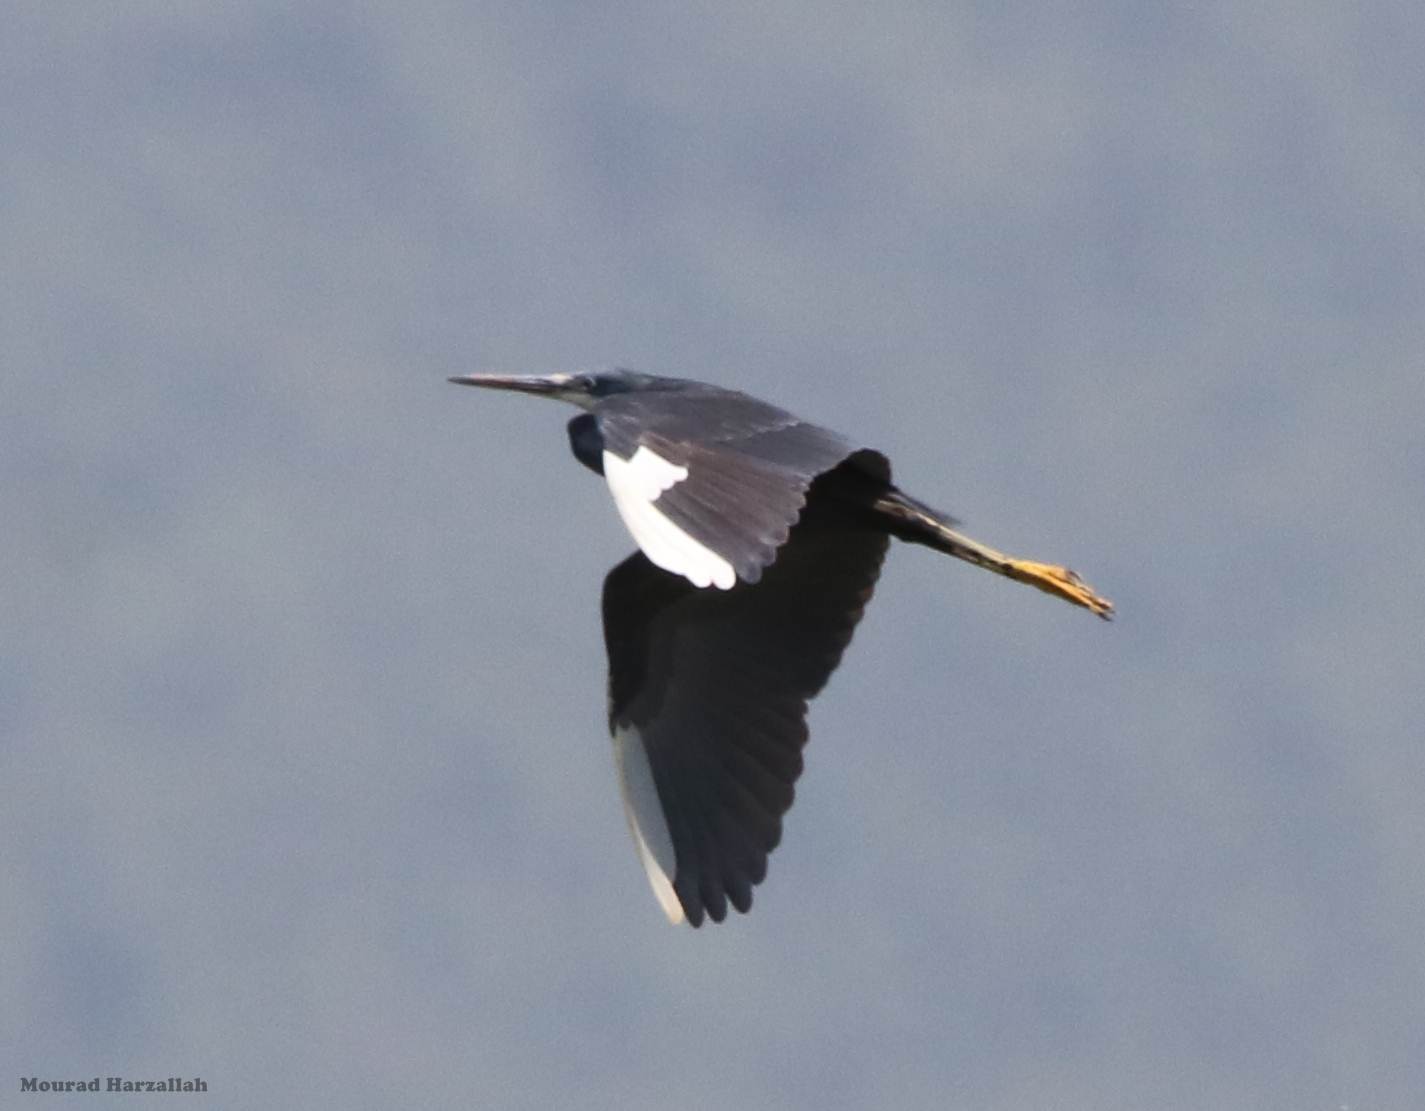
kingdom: Animalia
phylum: Chordata
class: Aves
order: Pelecaniformes
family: Ardeidae
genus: Egretta
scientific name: Egretta gularis
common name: Western reef-heron
